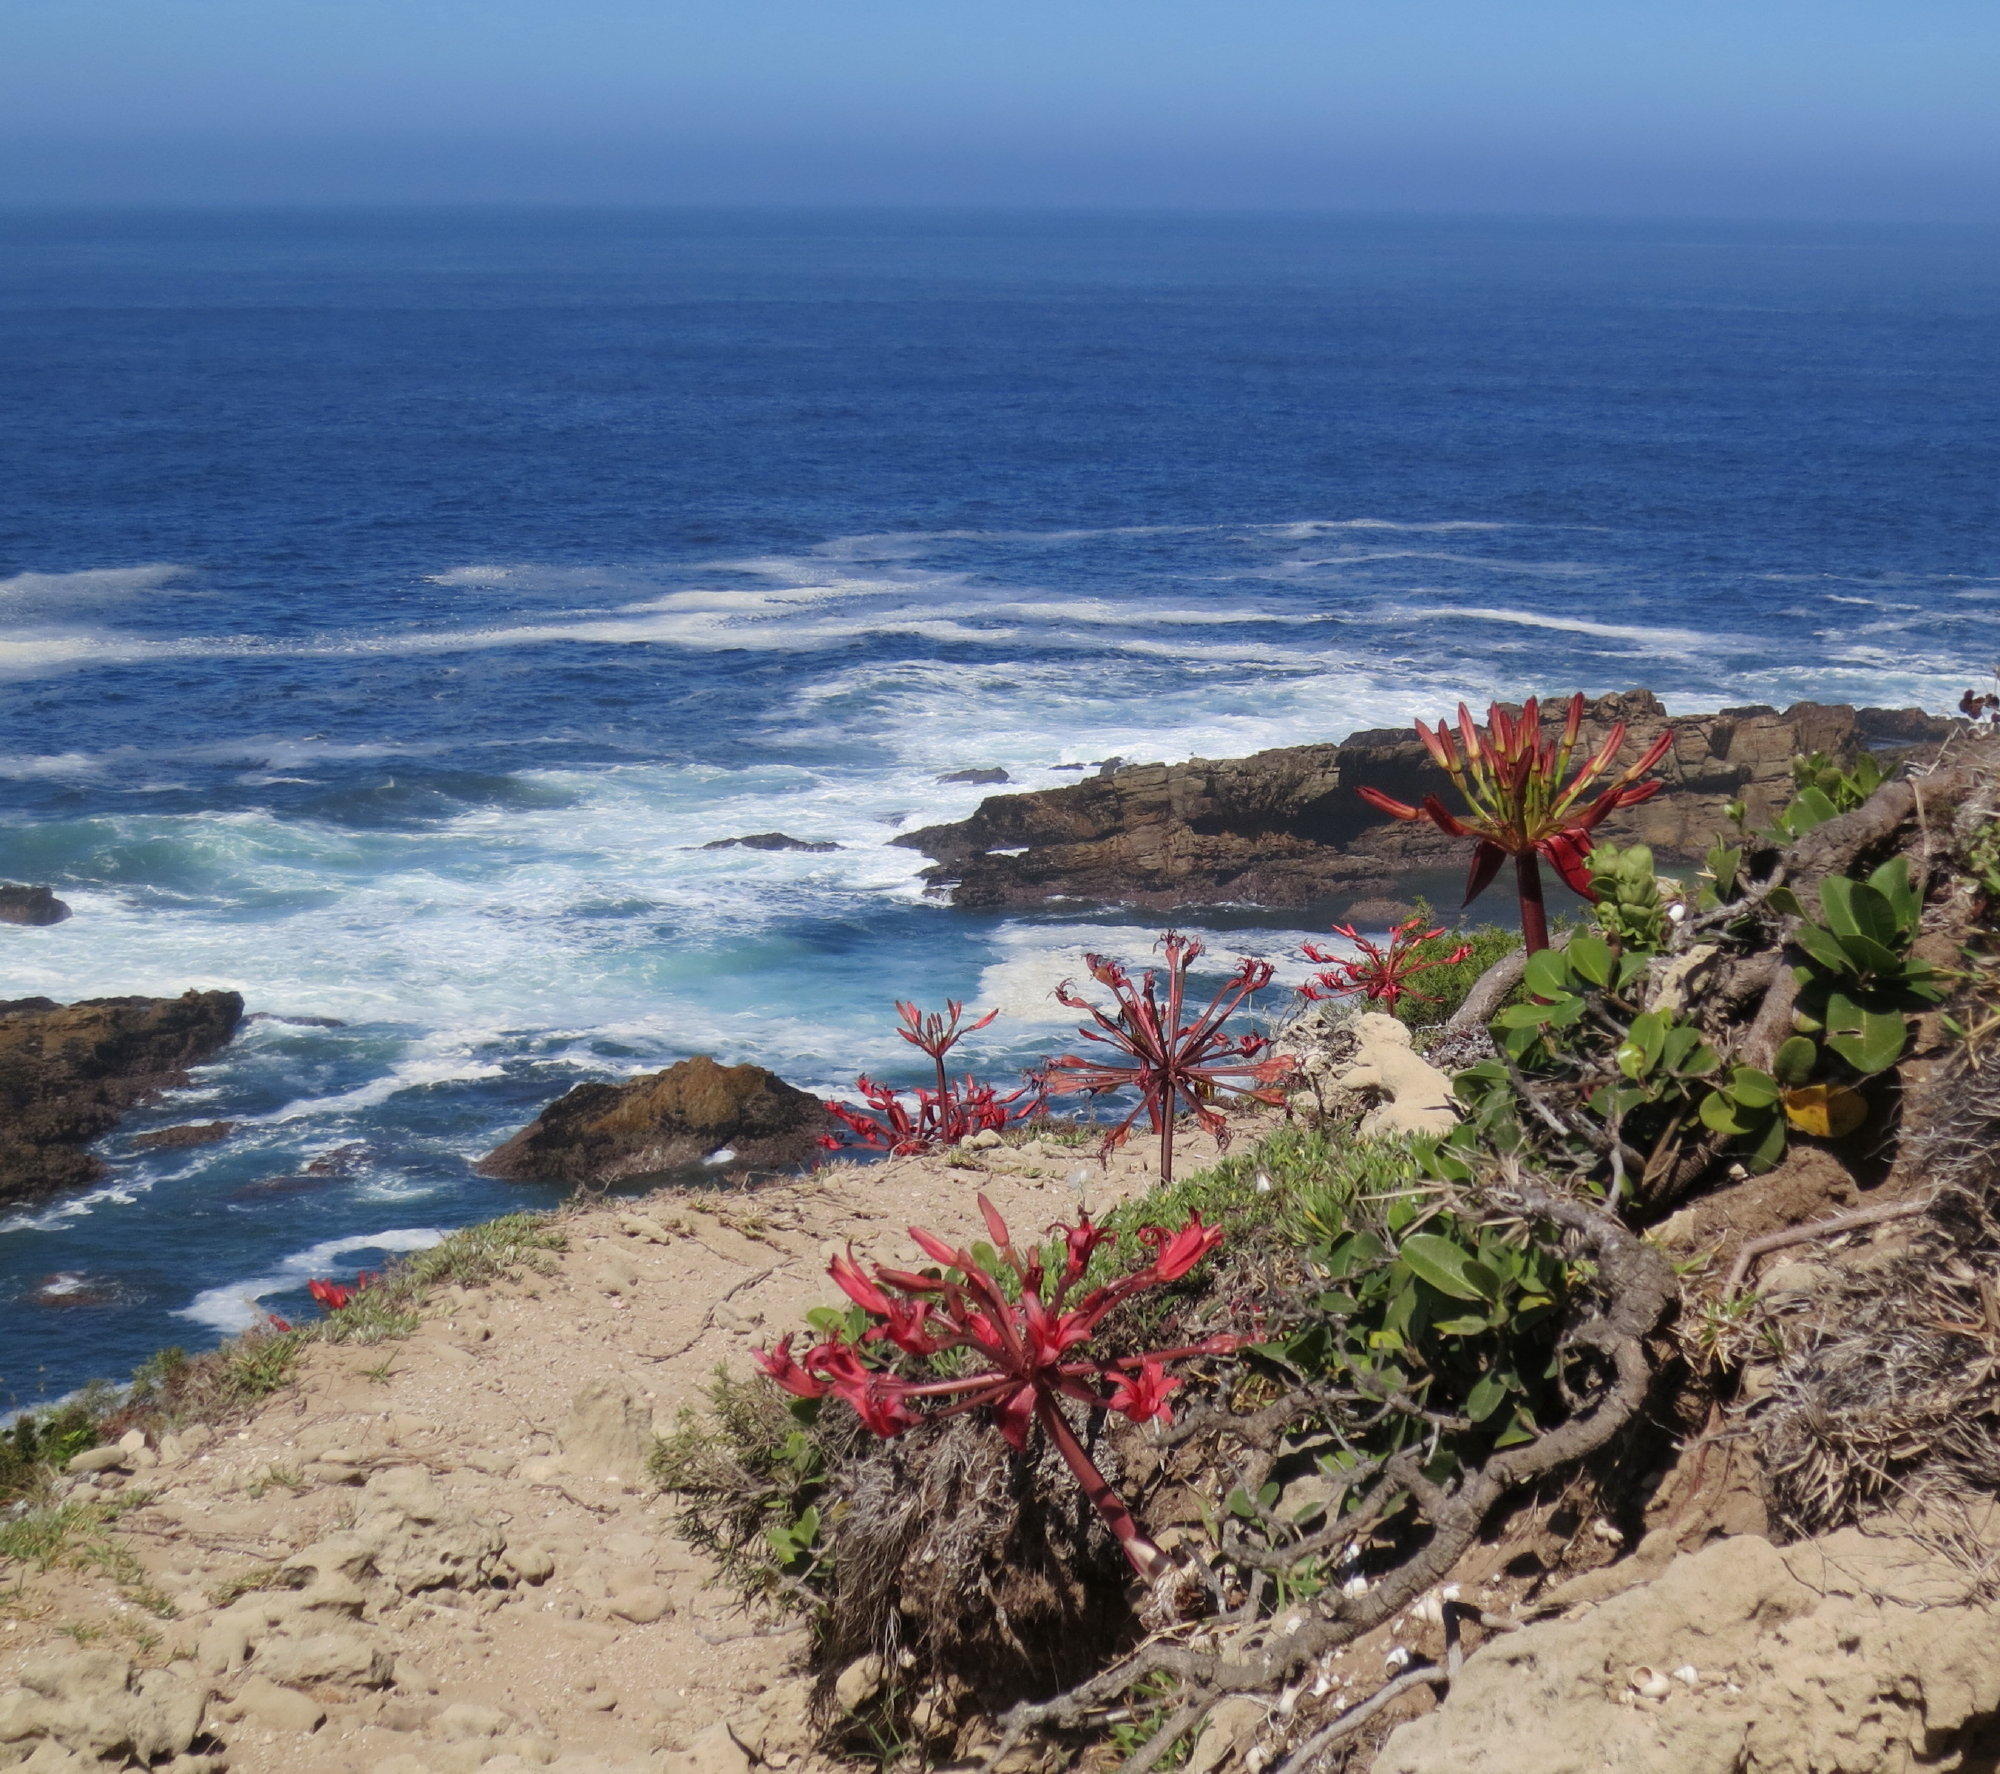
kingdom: Plantae
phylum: Tracheophyta
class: Liliopsida
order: Asparagales
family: Amaryllidaceae
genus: Brunsvigia
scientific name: Brunsvigia orientalis
